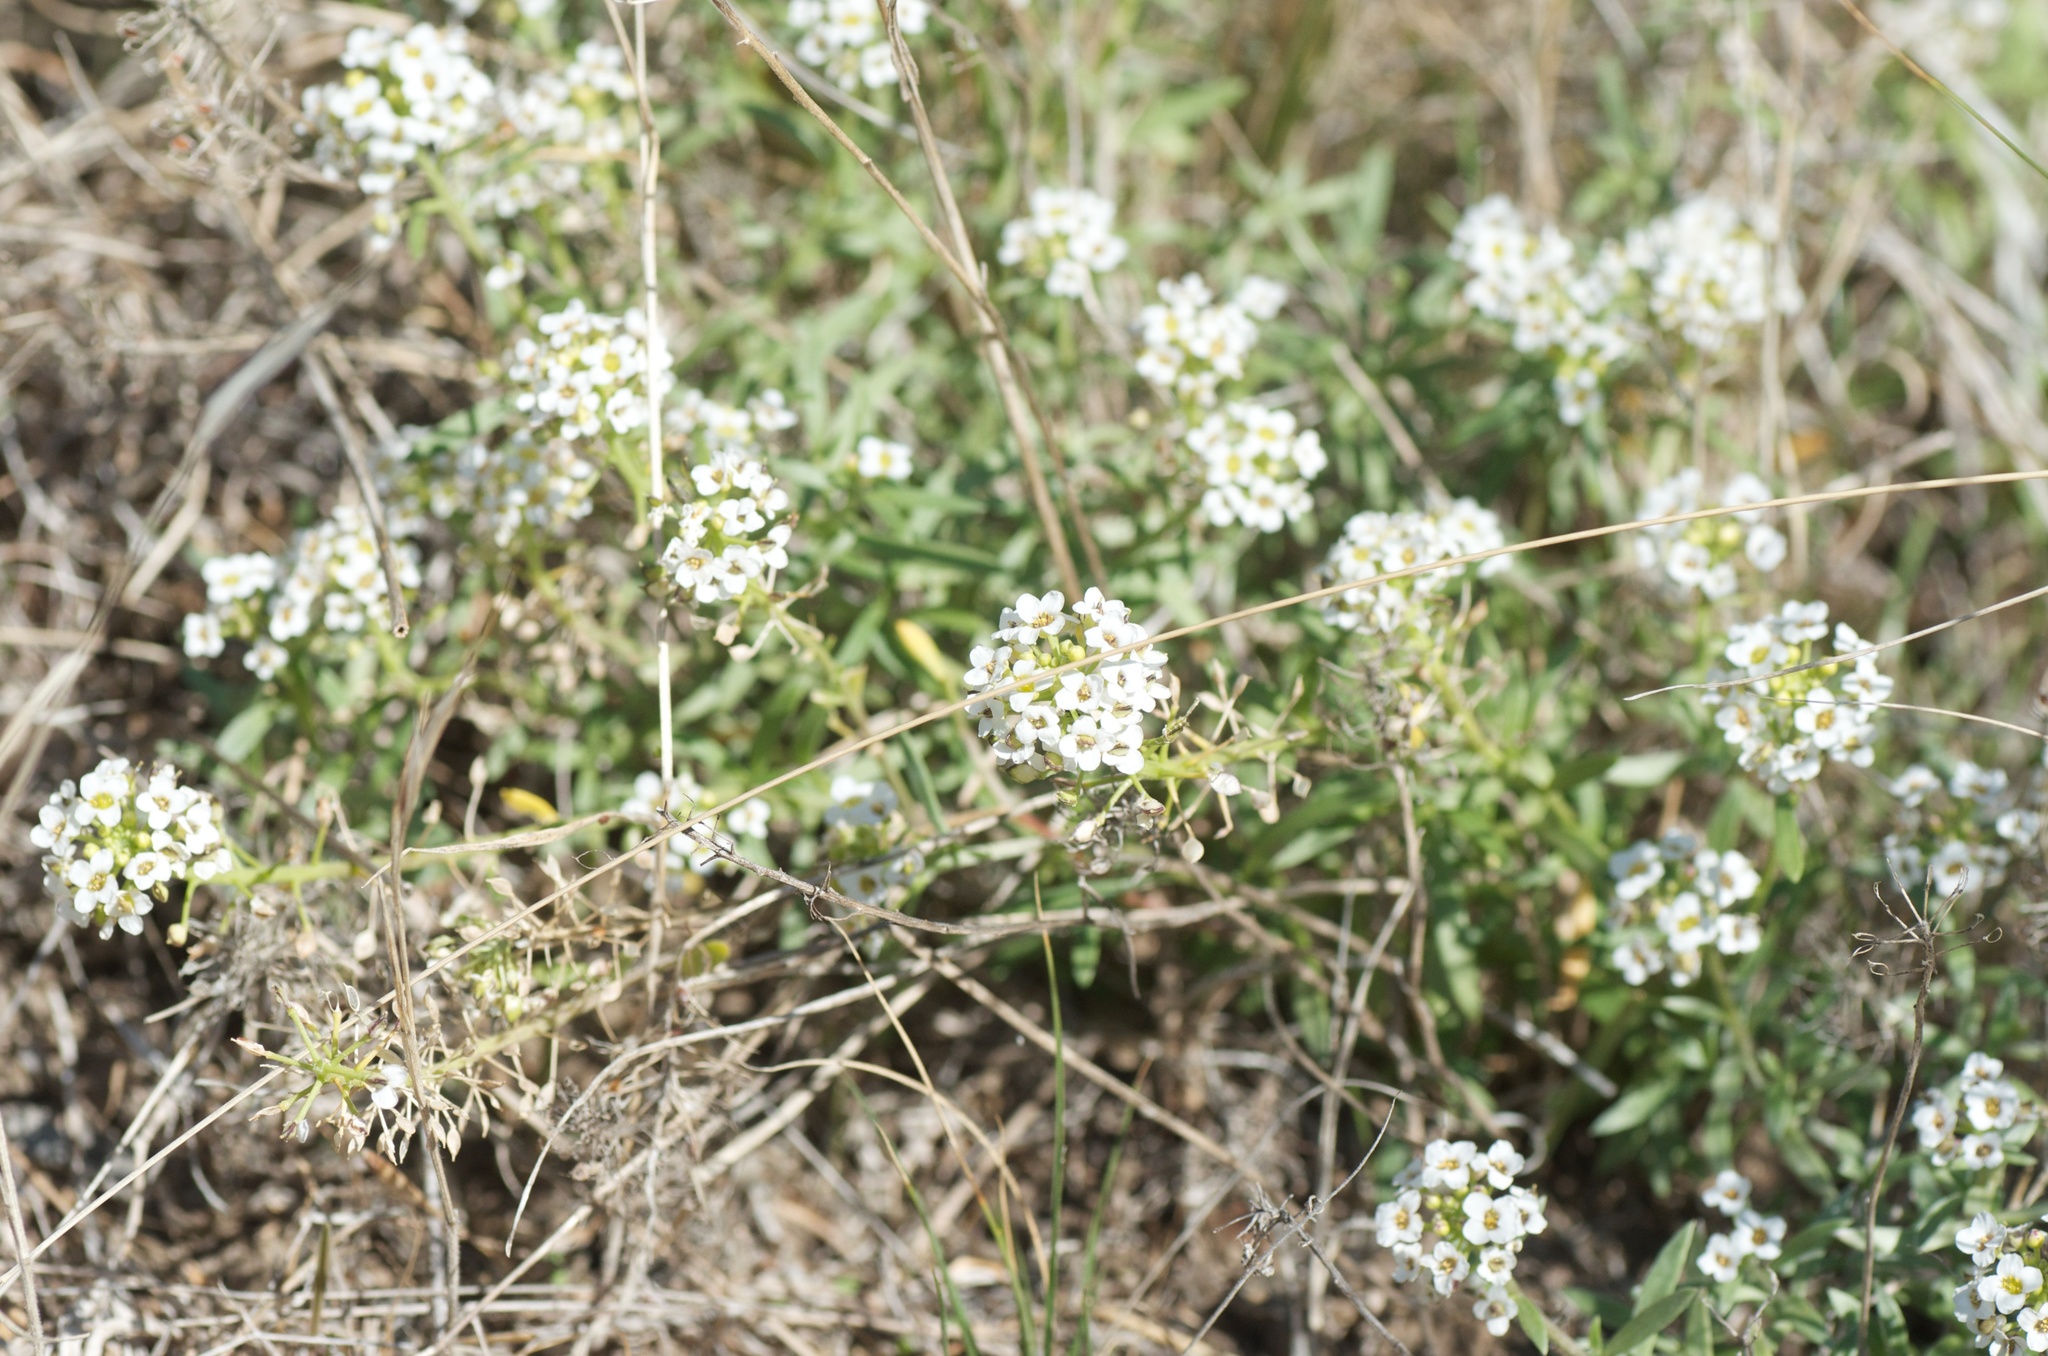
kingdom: Plantae
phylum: Tracheophyta
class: Magnoliopsida
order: Brassicales
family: Brassicaceae
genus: Lobularia
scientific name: Lobularia maritima
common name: Sweet alison
